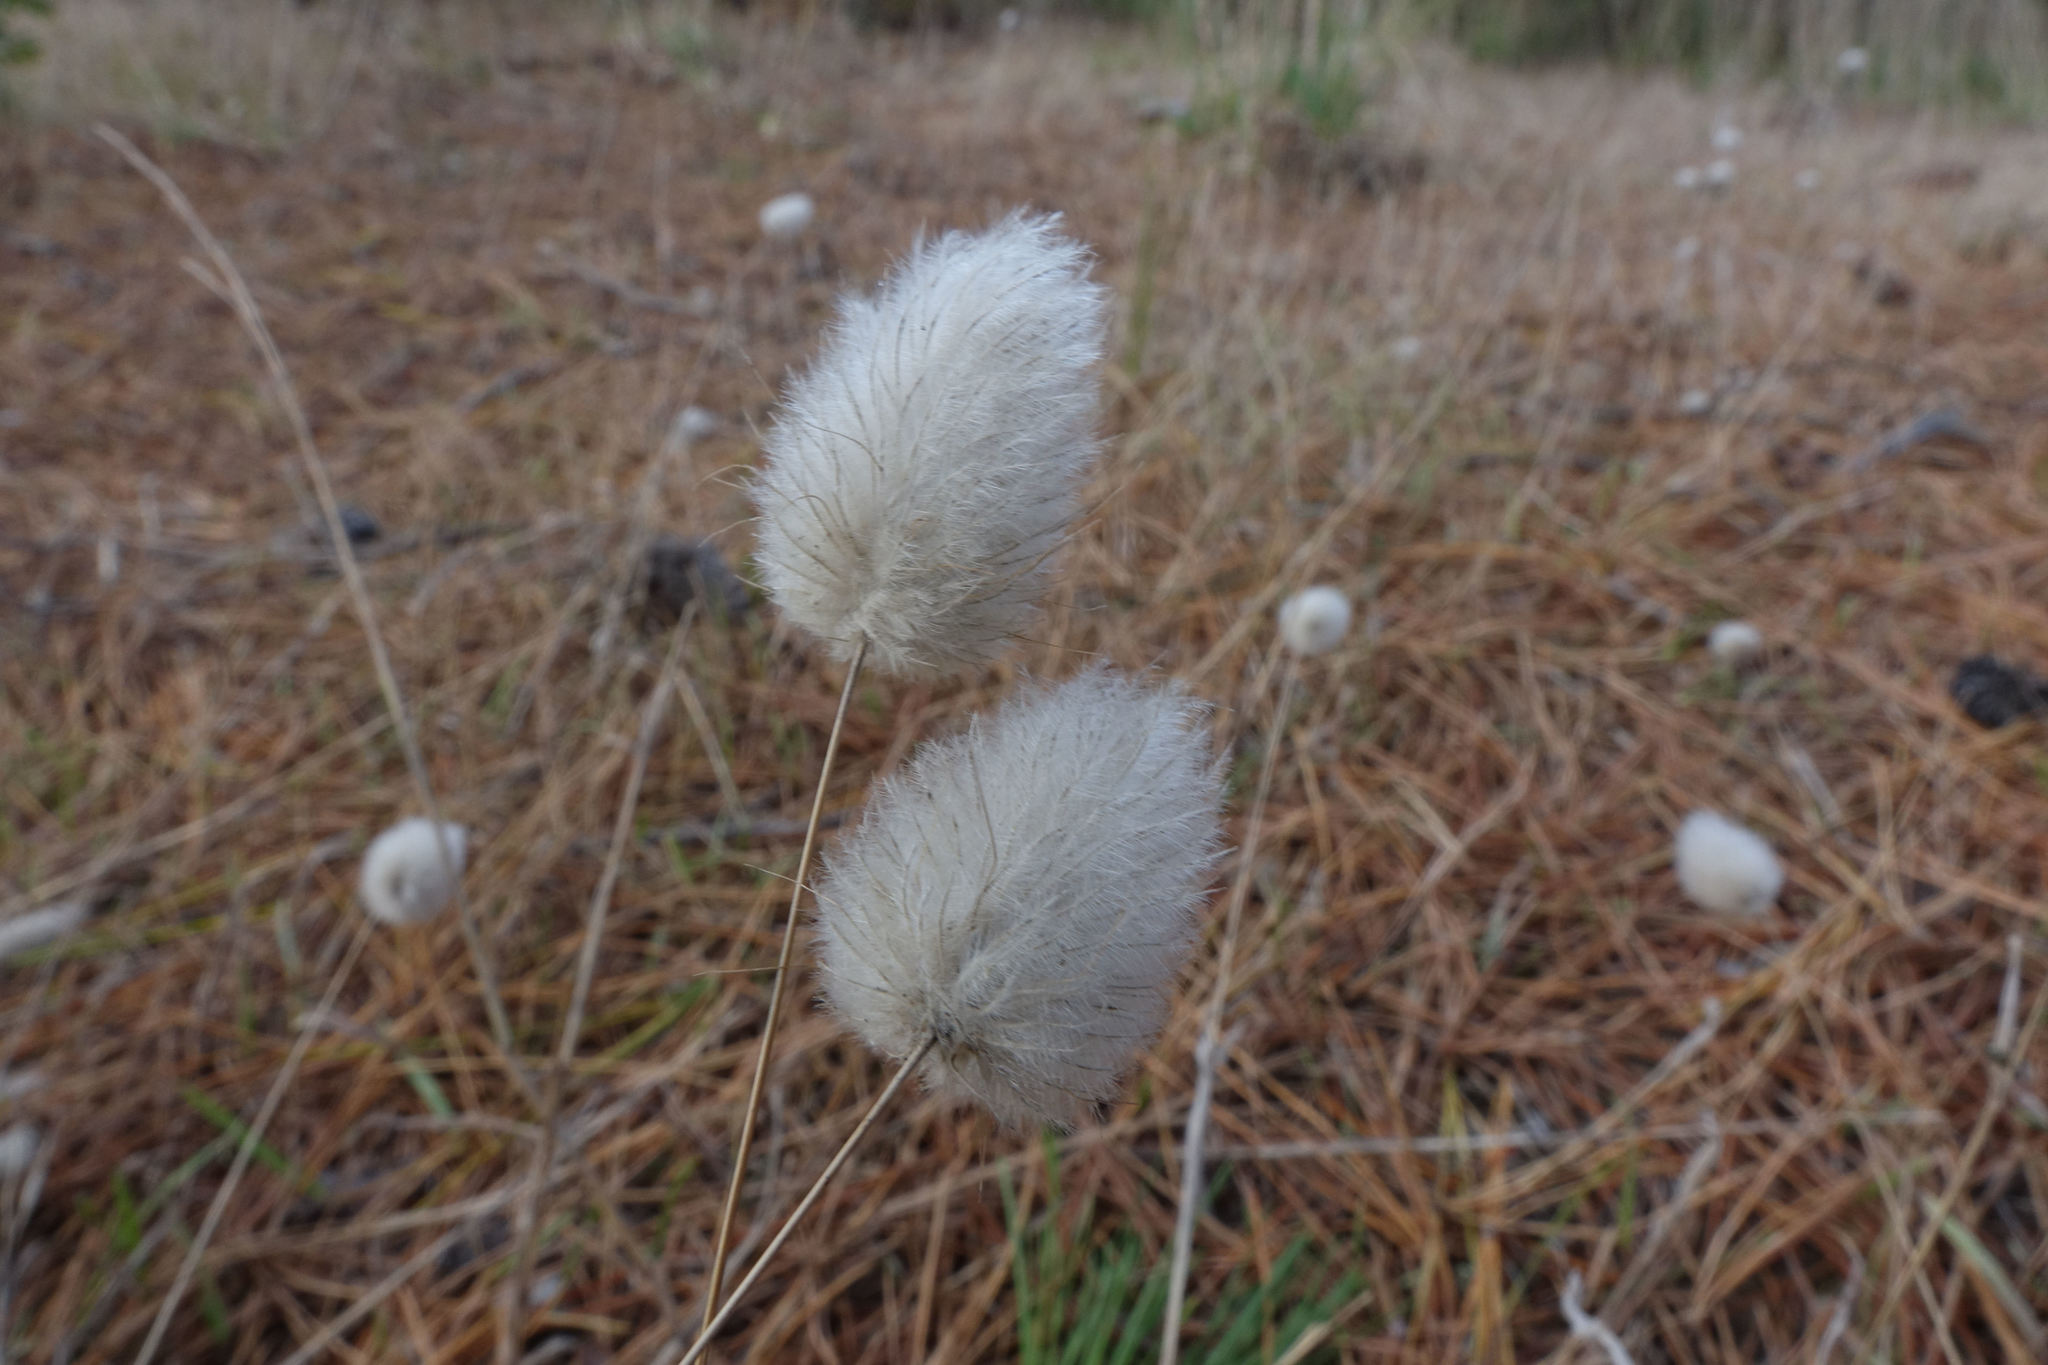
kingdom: Plantae
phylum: Tracheophyta
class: Liliopsida
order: Poales
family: Poaceae
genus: Lagurus
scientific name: Lagurus ovatus
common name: Hare's-tail
